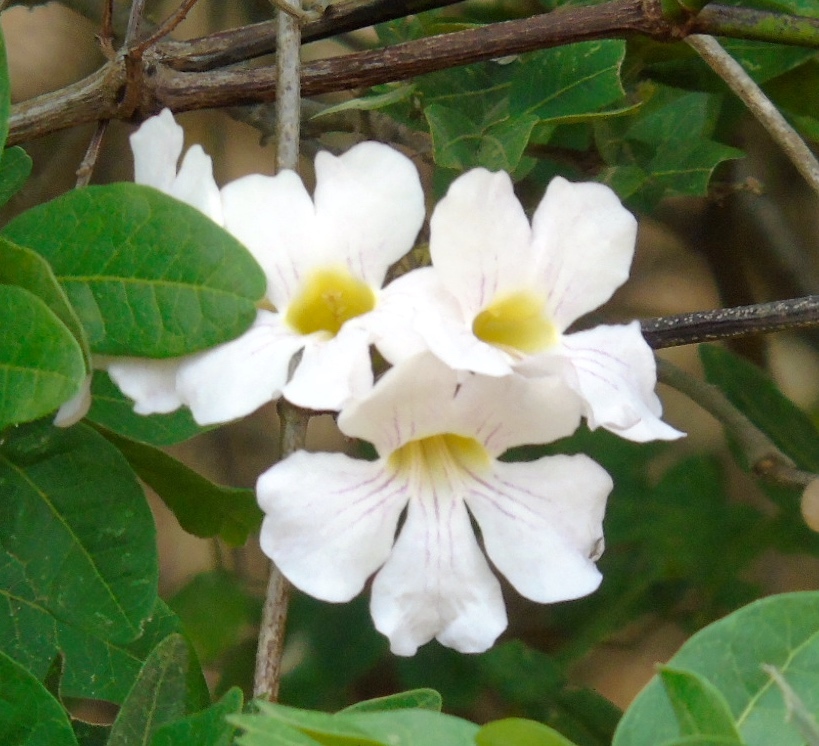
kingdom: Plantae
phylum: Tracheophyta
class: Magnoliopsida
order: Lamiales
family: Bignoniaceae
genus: Bignonia
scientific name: Bignonia potosina
